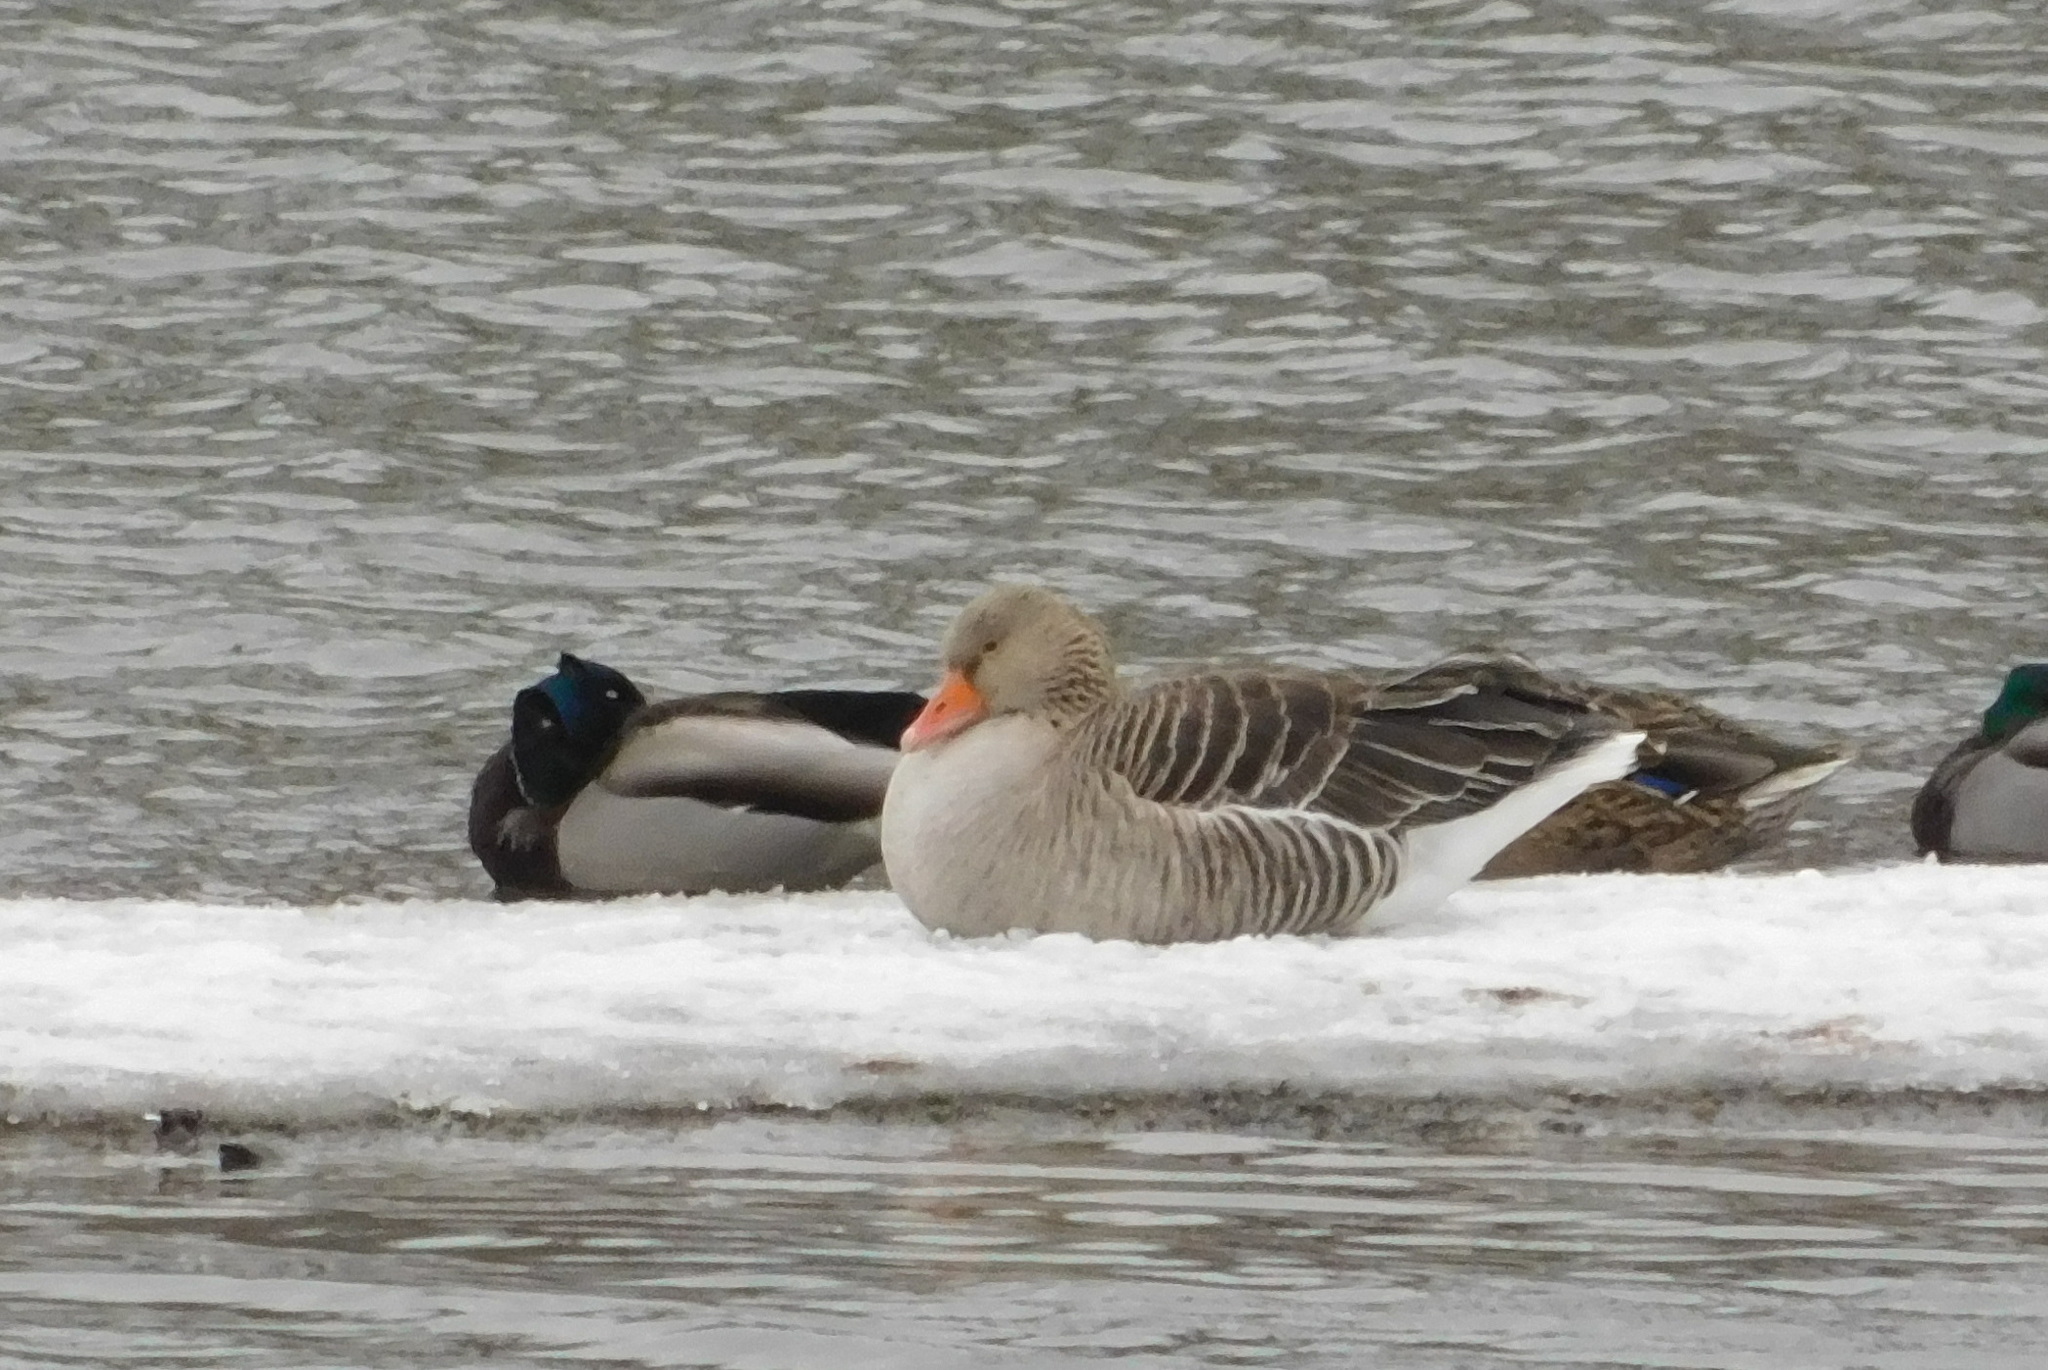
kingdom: Animalia
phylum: Chordata
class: Aves
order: Anseriformes
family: Anatidae
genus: Anser
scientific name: Anser anser
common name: Greylag goose
